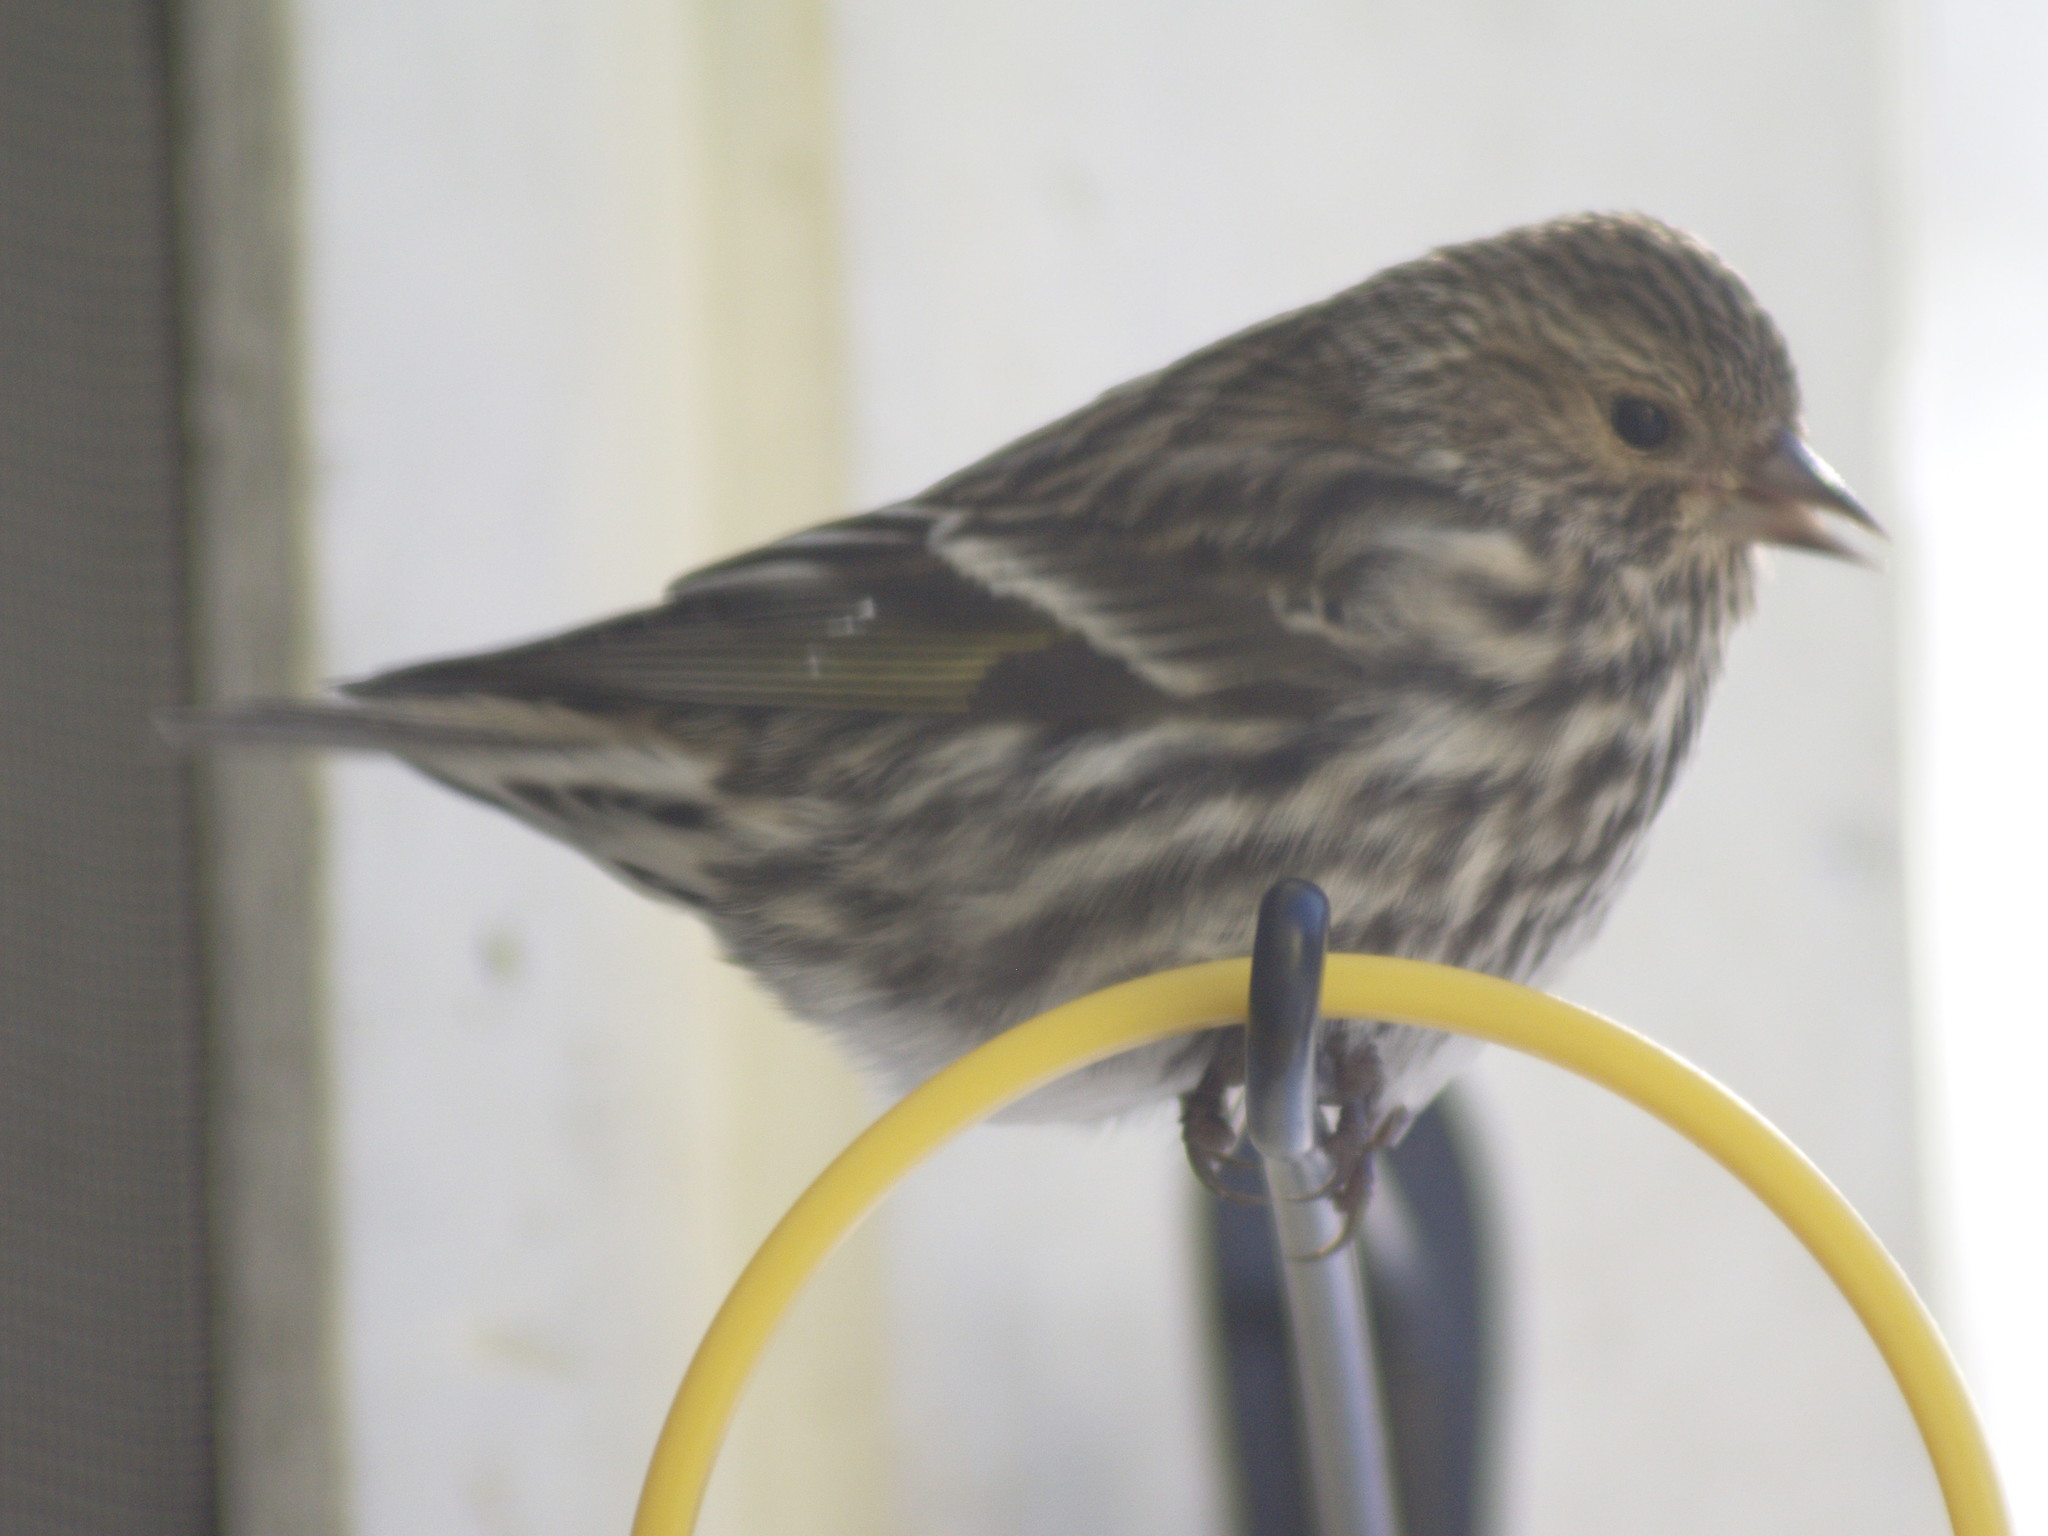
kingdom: Animalia
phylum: Chordata
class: Aves
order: Passeriformes
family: Fringillidae
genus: Spinus
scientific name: Spinus pinus
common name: Pine siskin
